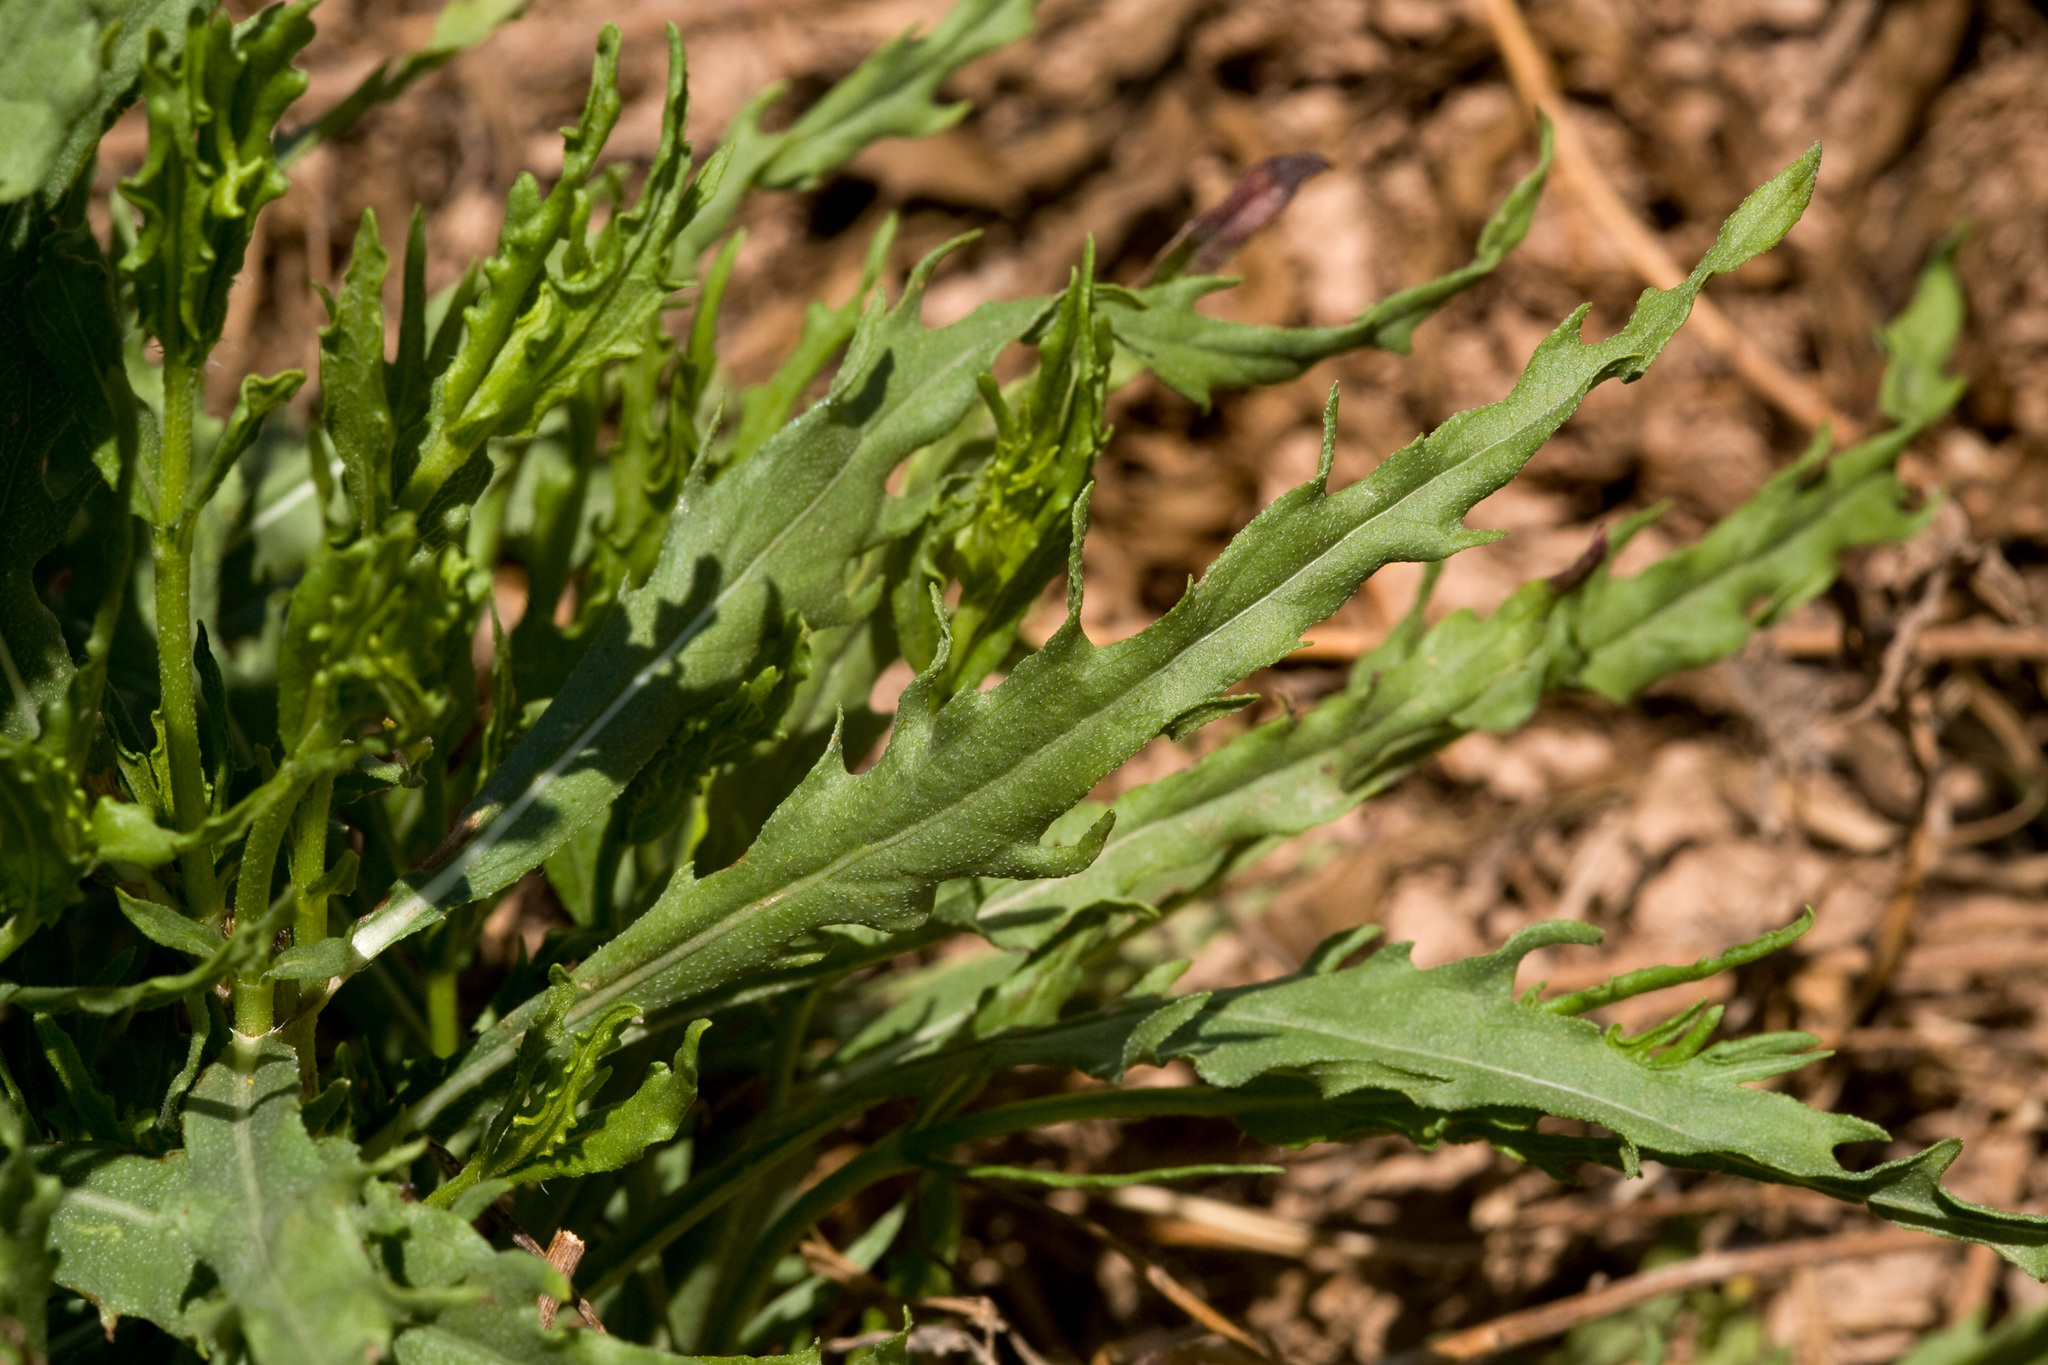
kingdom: Plantae
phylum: Tracheophyta
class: Magnoliopsida
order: Asterales
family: Asteraceae
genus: Helianthus
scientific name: Helianthus laciniatus
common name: Jagged-edge sunflower
